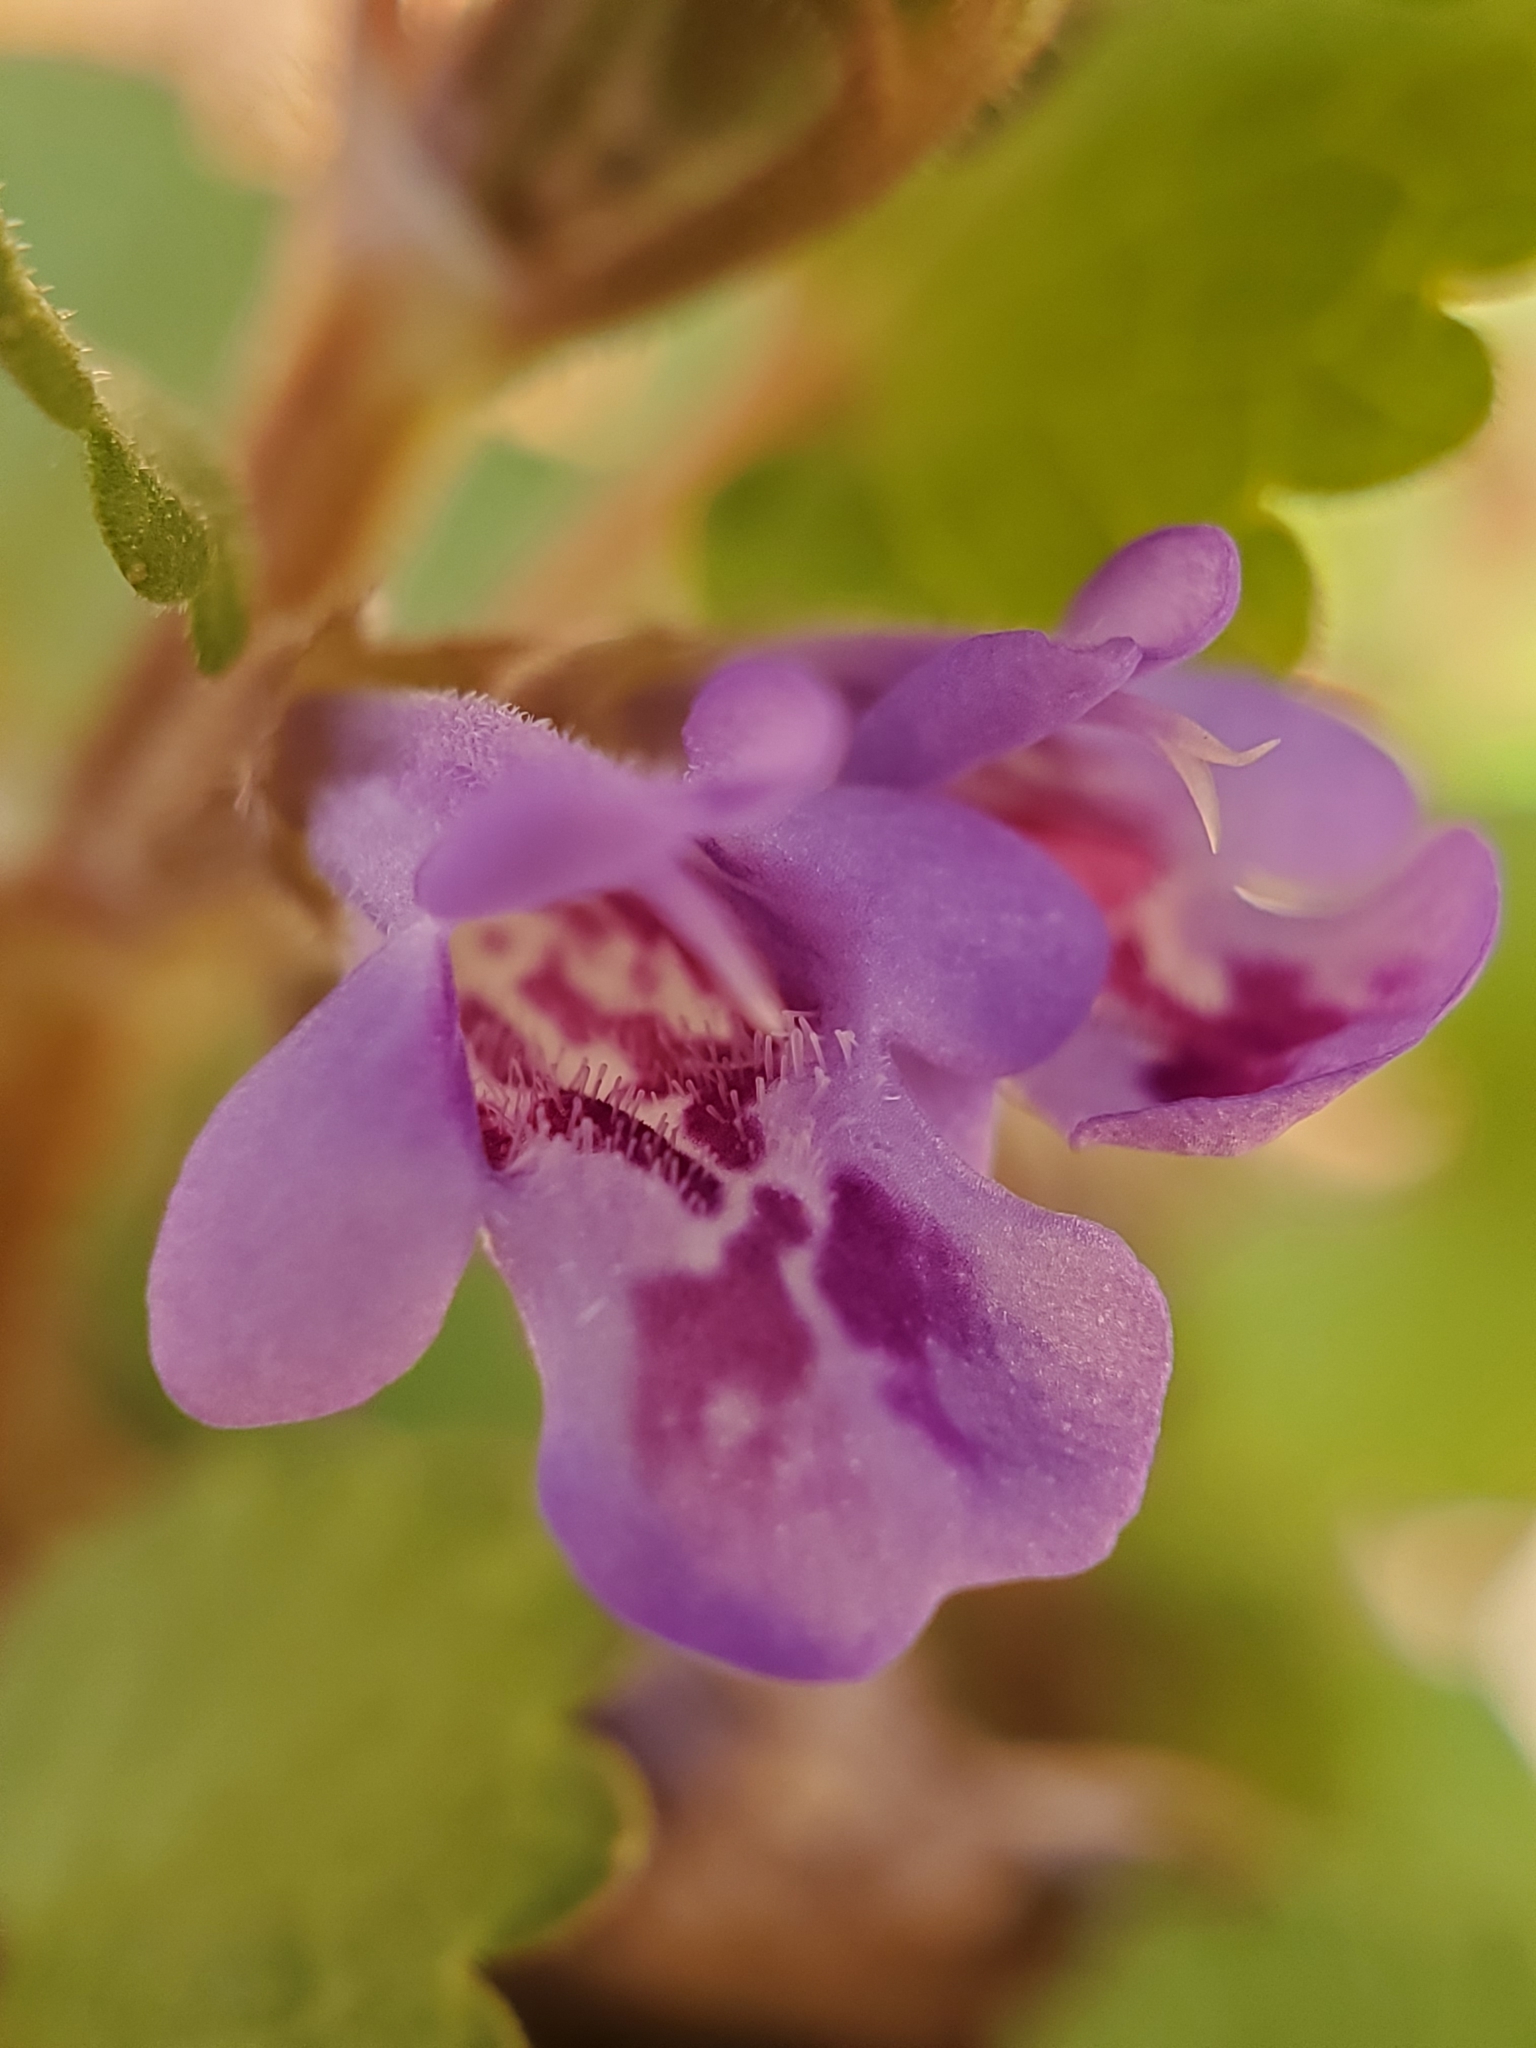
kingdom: Plantae
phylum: Tracheophyta
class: Magnoliopsida
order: Lamiales
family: Lamiaceae
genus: Glechoma
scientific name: Glechoma hederacea
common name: Ground ivy
